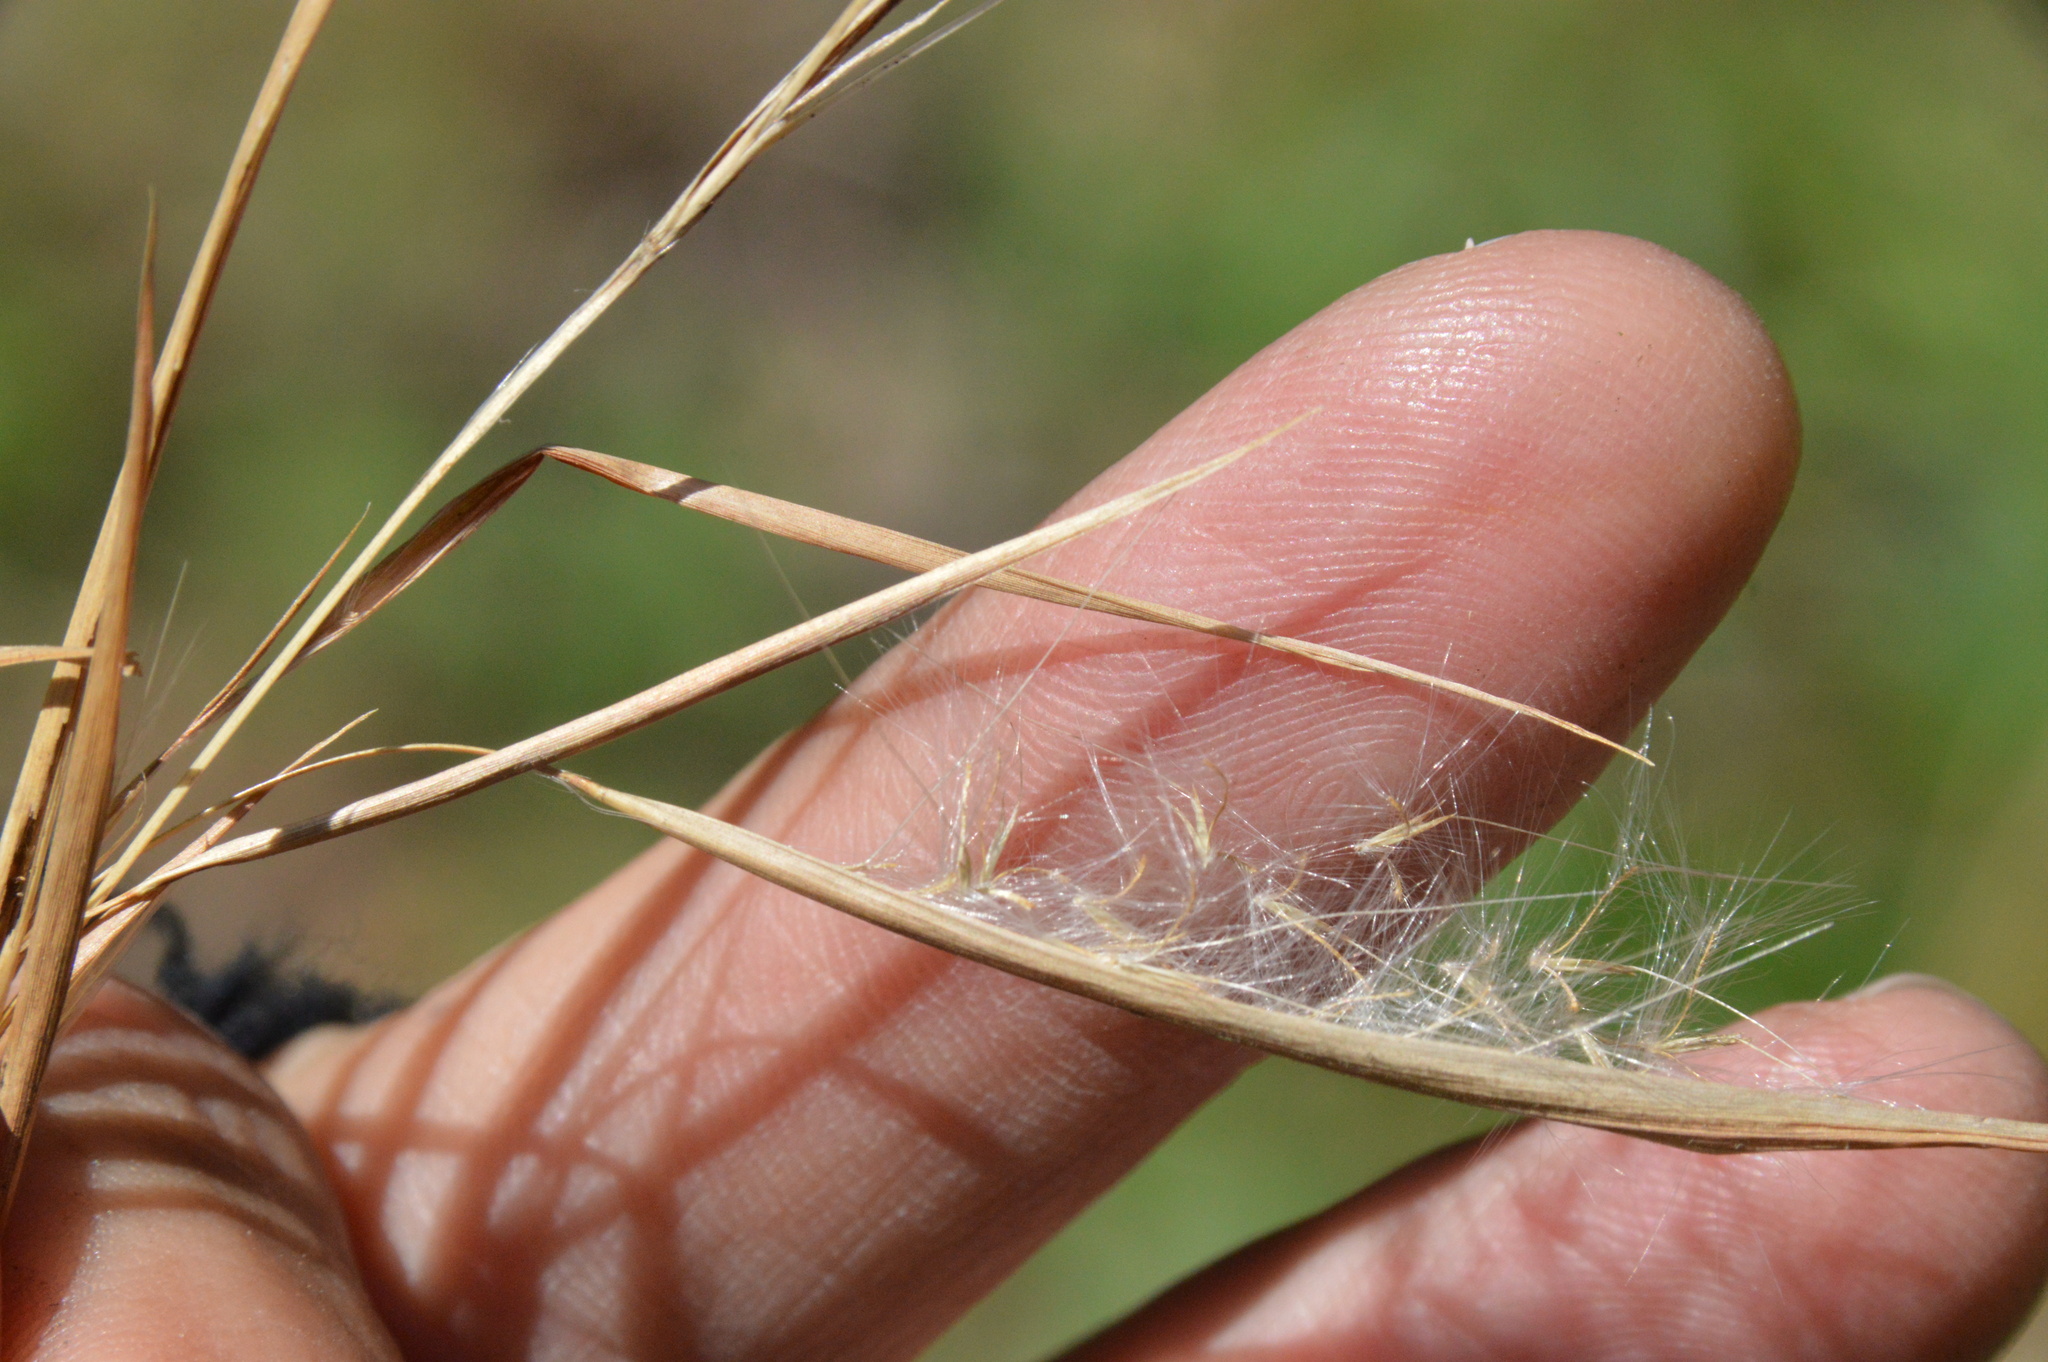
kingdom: Plantae
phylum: Tracheophyta
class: Liliopsida
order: Poales
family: Poaceae
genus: Andropogon
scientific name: Andropogon virginicus
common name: Broomsedge bluestem
